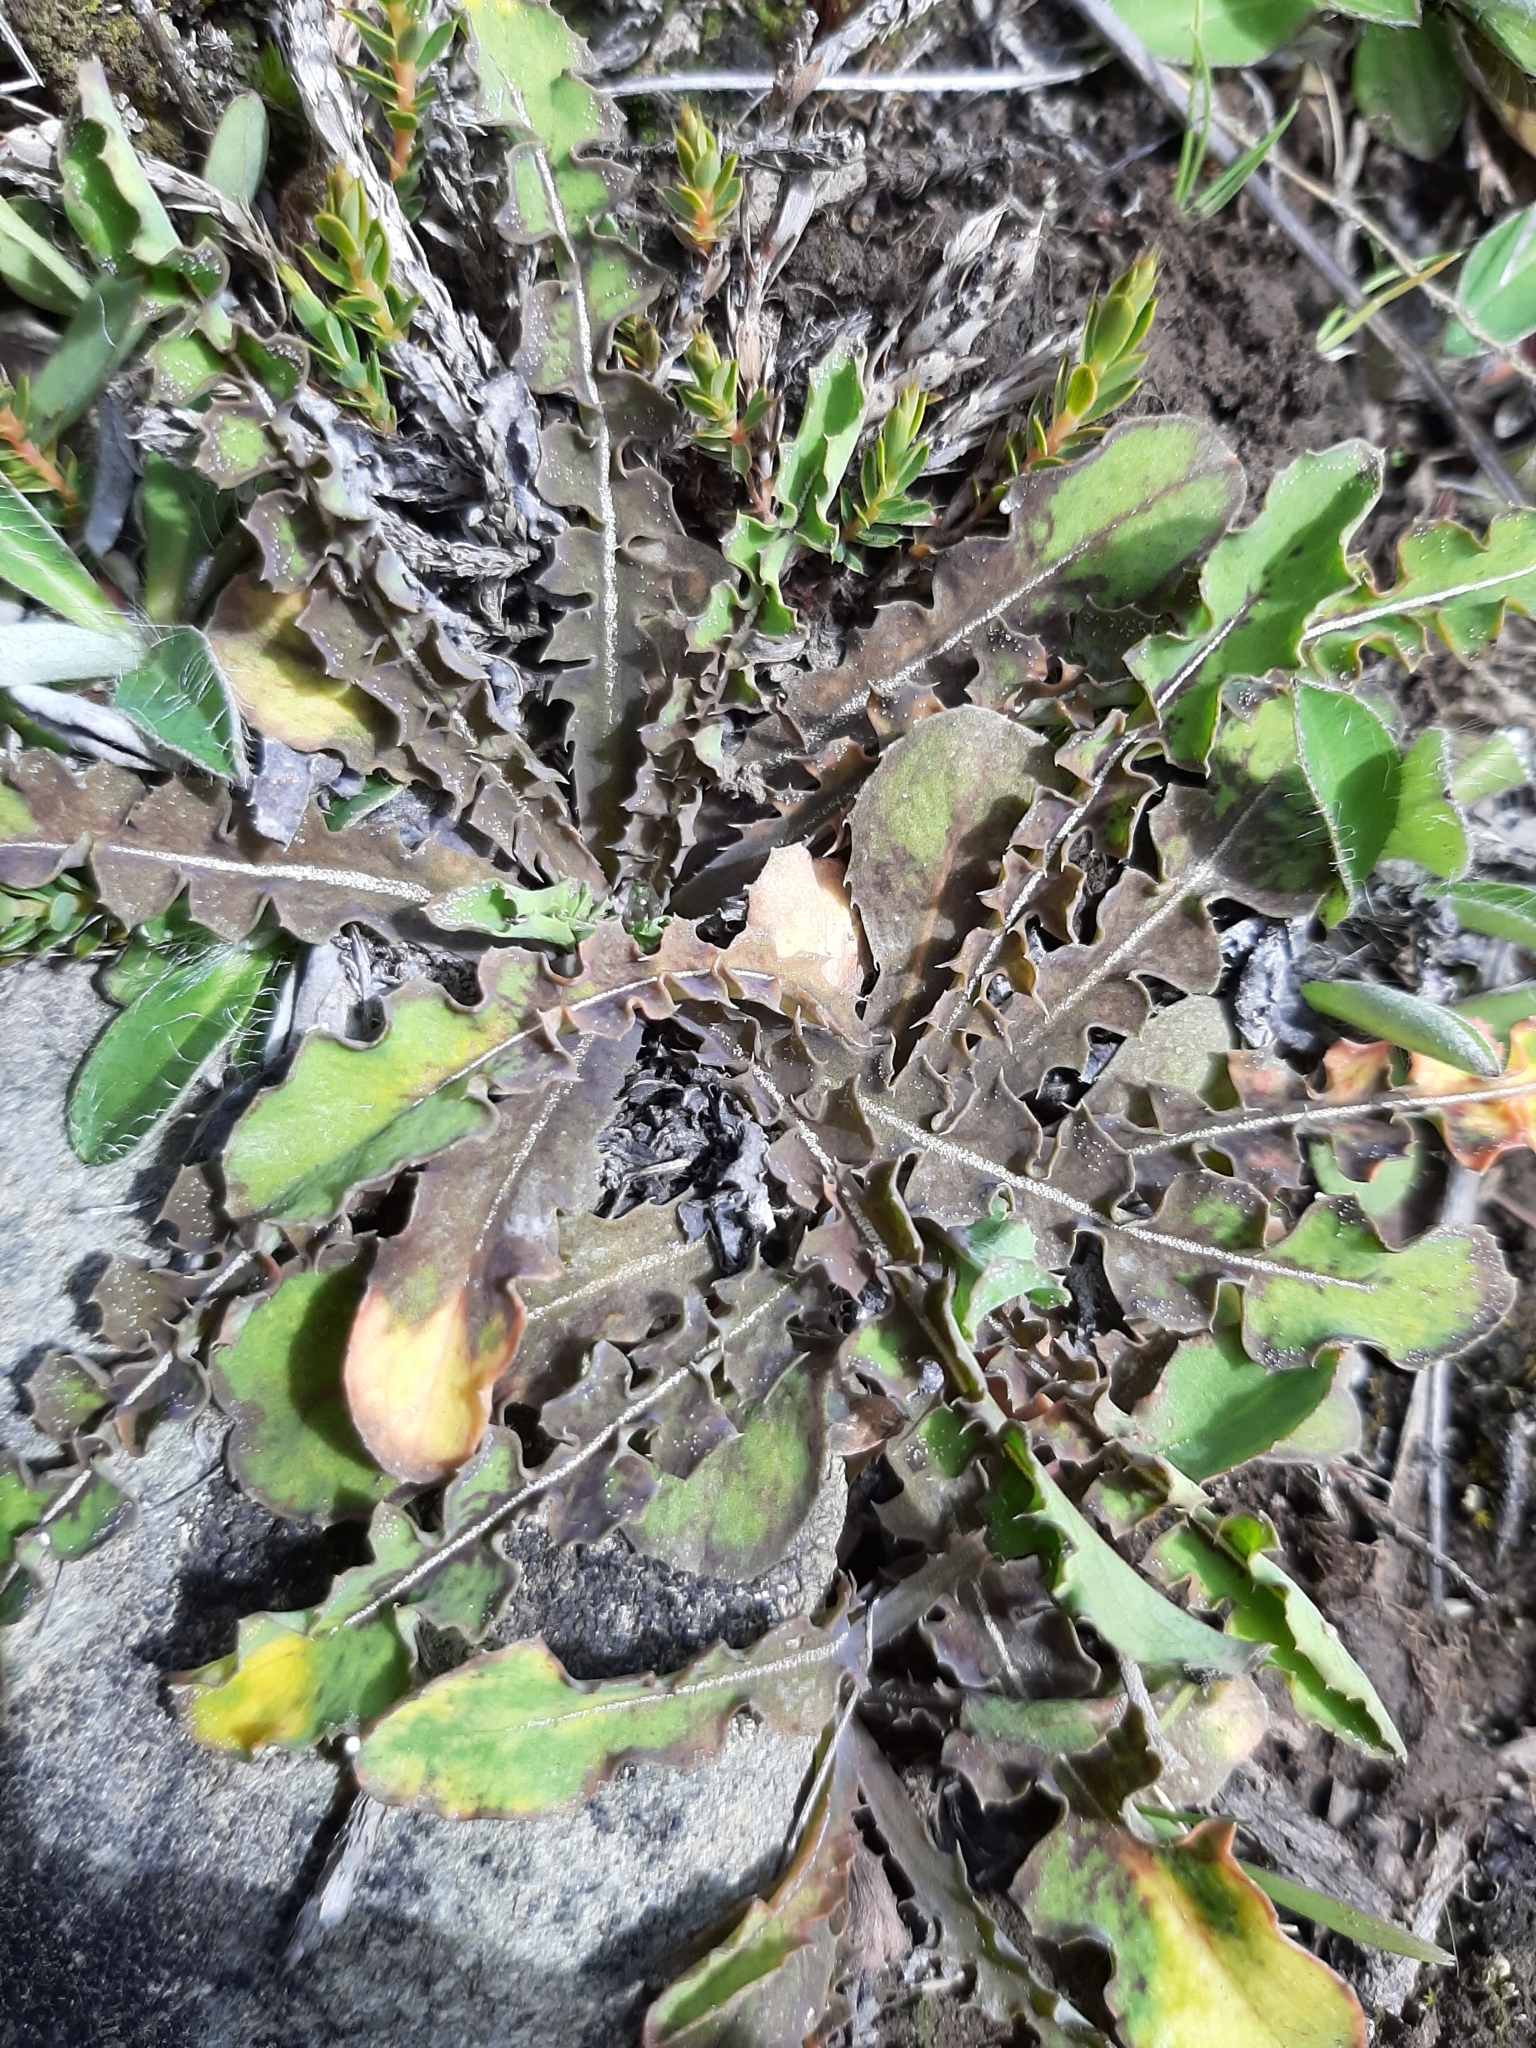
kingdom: Plantae
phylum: Tracheophyta
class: Magnoliopsida
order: Asterales
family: Asteraceae
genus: Sonchus
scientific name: Sonchus novae-zelandiae
